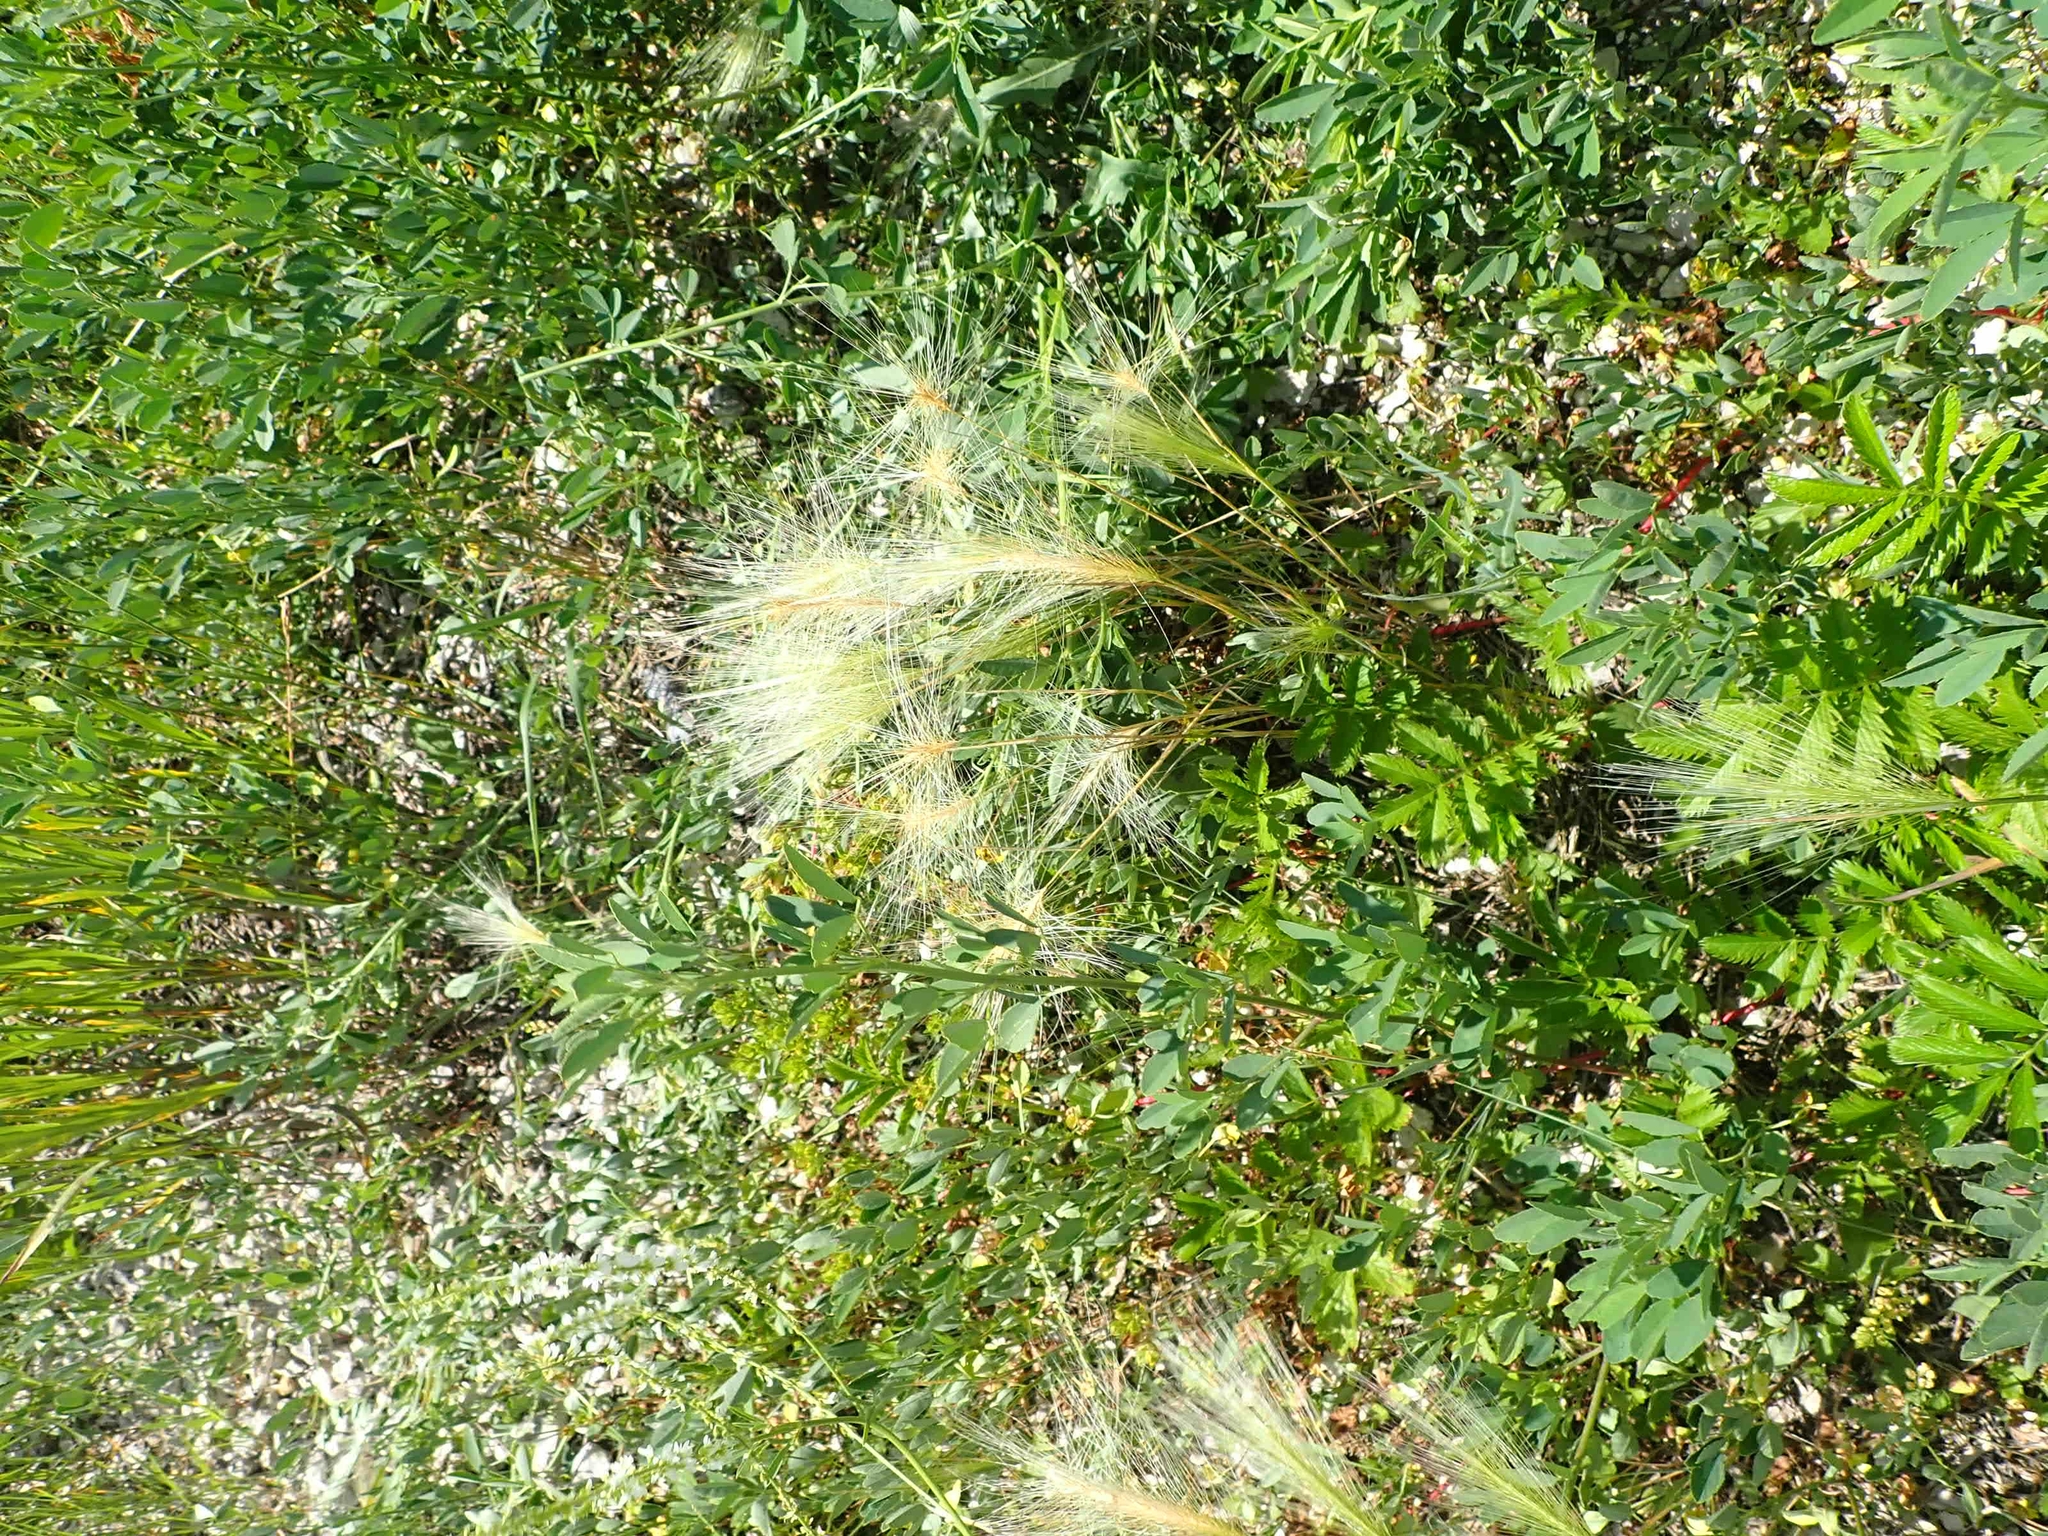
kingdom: Plantae
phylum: Tracheophyta
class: Liliopsida
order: Poales
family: Poaceae
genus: Hordeum
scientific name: Hordeum jubatum
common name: Foxtail barley
